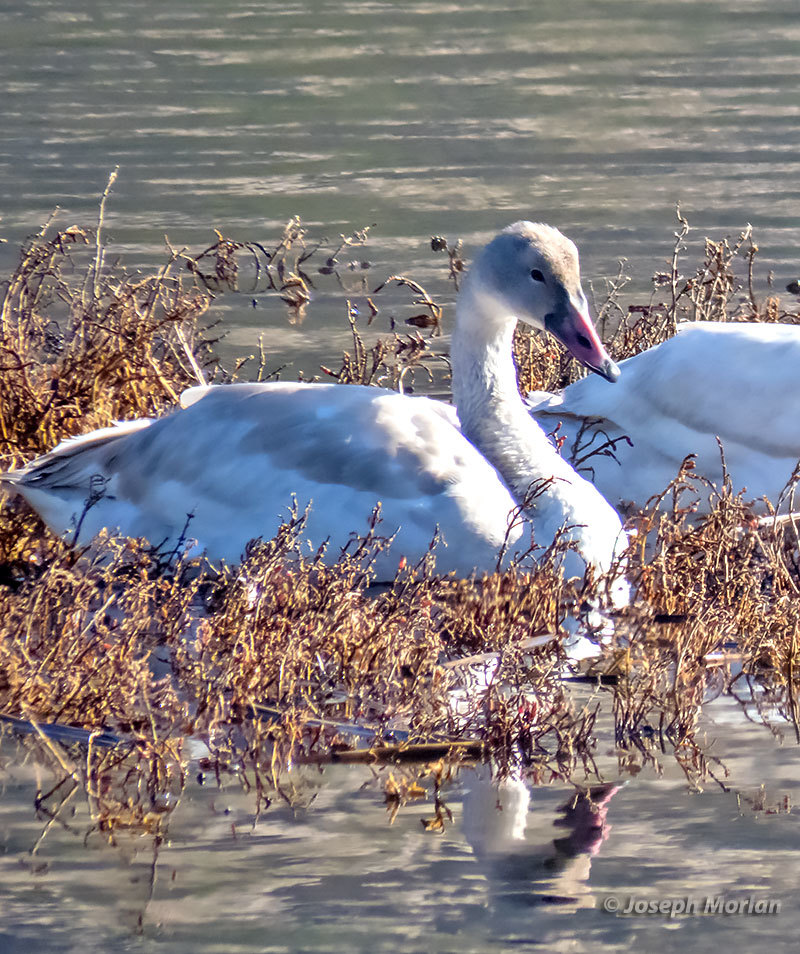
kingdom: Animalia
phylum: Chordata
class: Aves
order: Anseriformes
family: Anatidae
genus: Cygnus
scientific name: Cygnus columbianus
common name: Tundra swan
